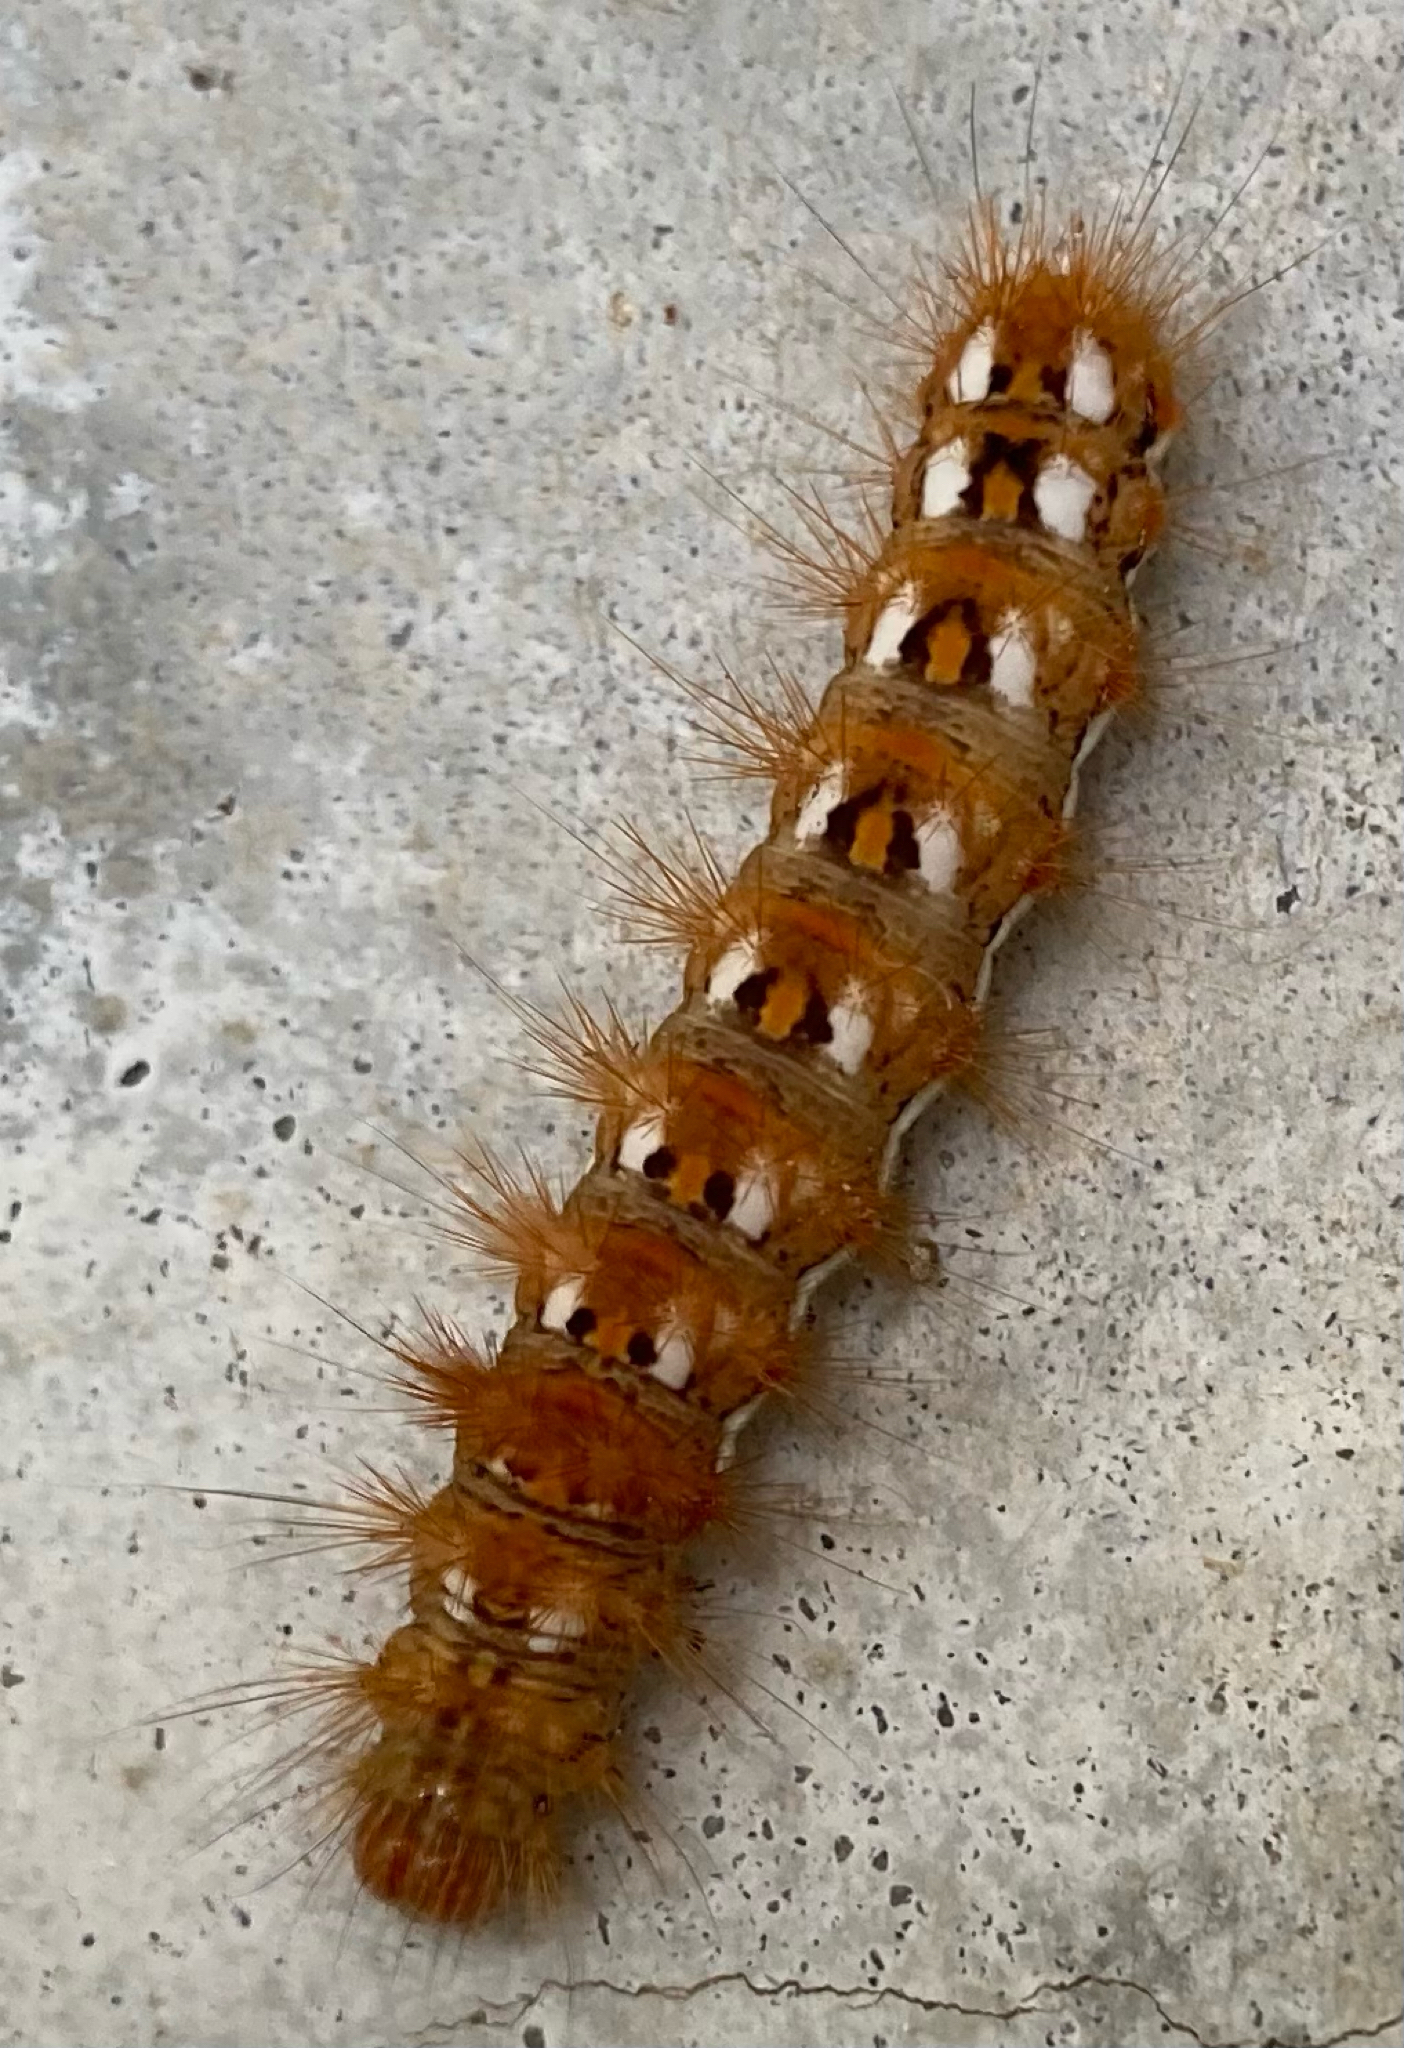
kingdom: Animalia
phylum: Arthropoda
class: Insecta
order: Lepidoptera
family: Noctuidae
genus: Acronicta
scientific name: Acronicta rumicis
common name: Knot grass
